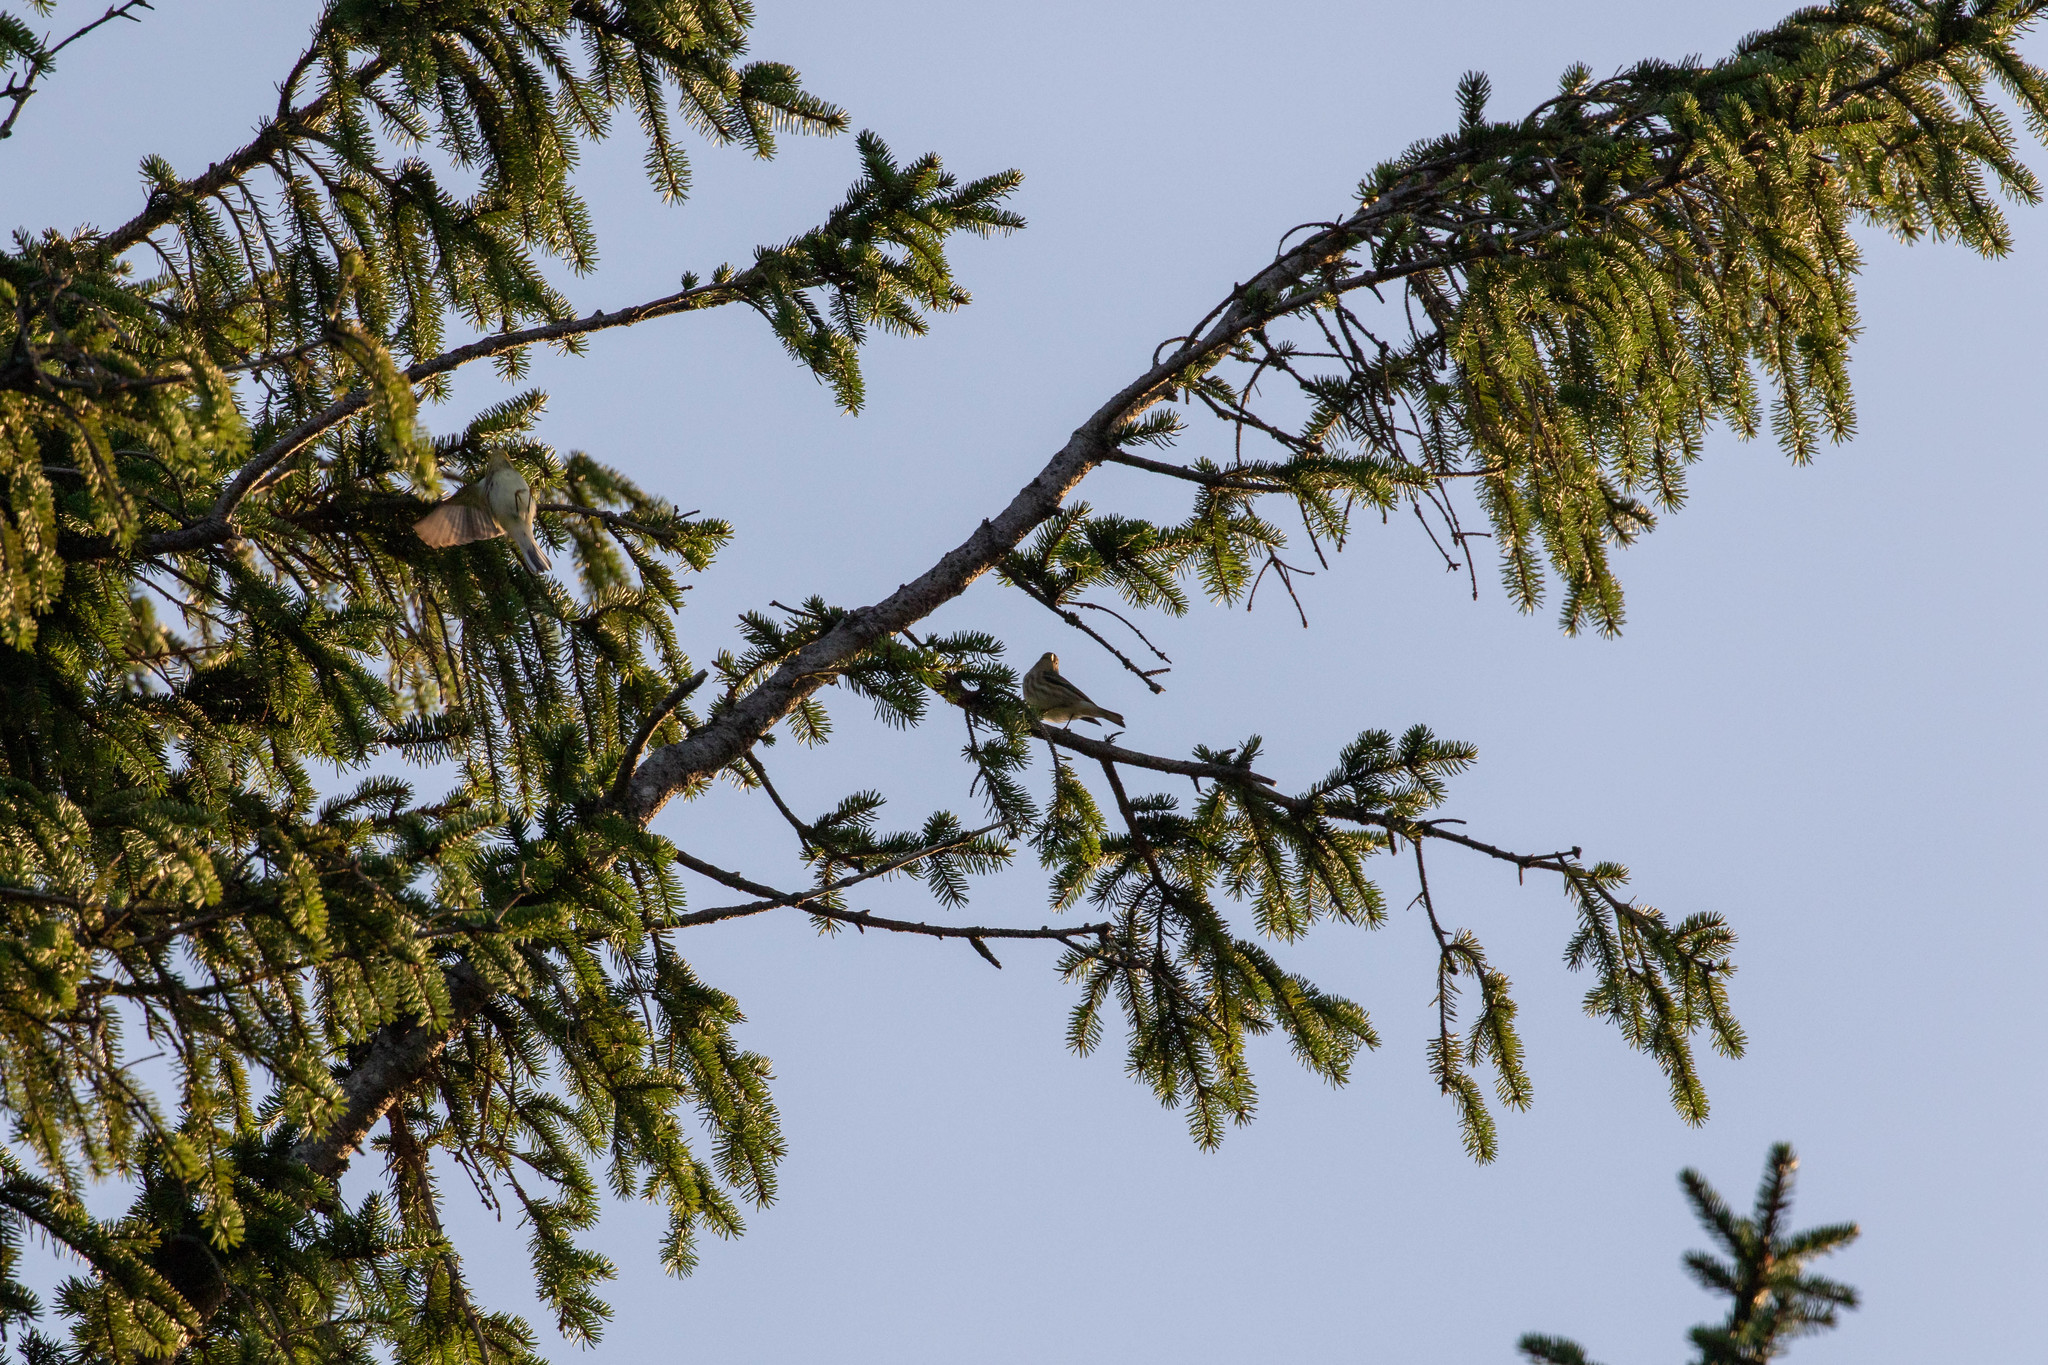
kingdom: Animalia
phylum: Chordata
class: Aves
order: Passeriformes
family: Parulidae
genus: Setophaga
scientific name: Setophaga tigrina
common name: Cape may warbler
